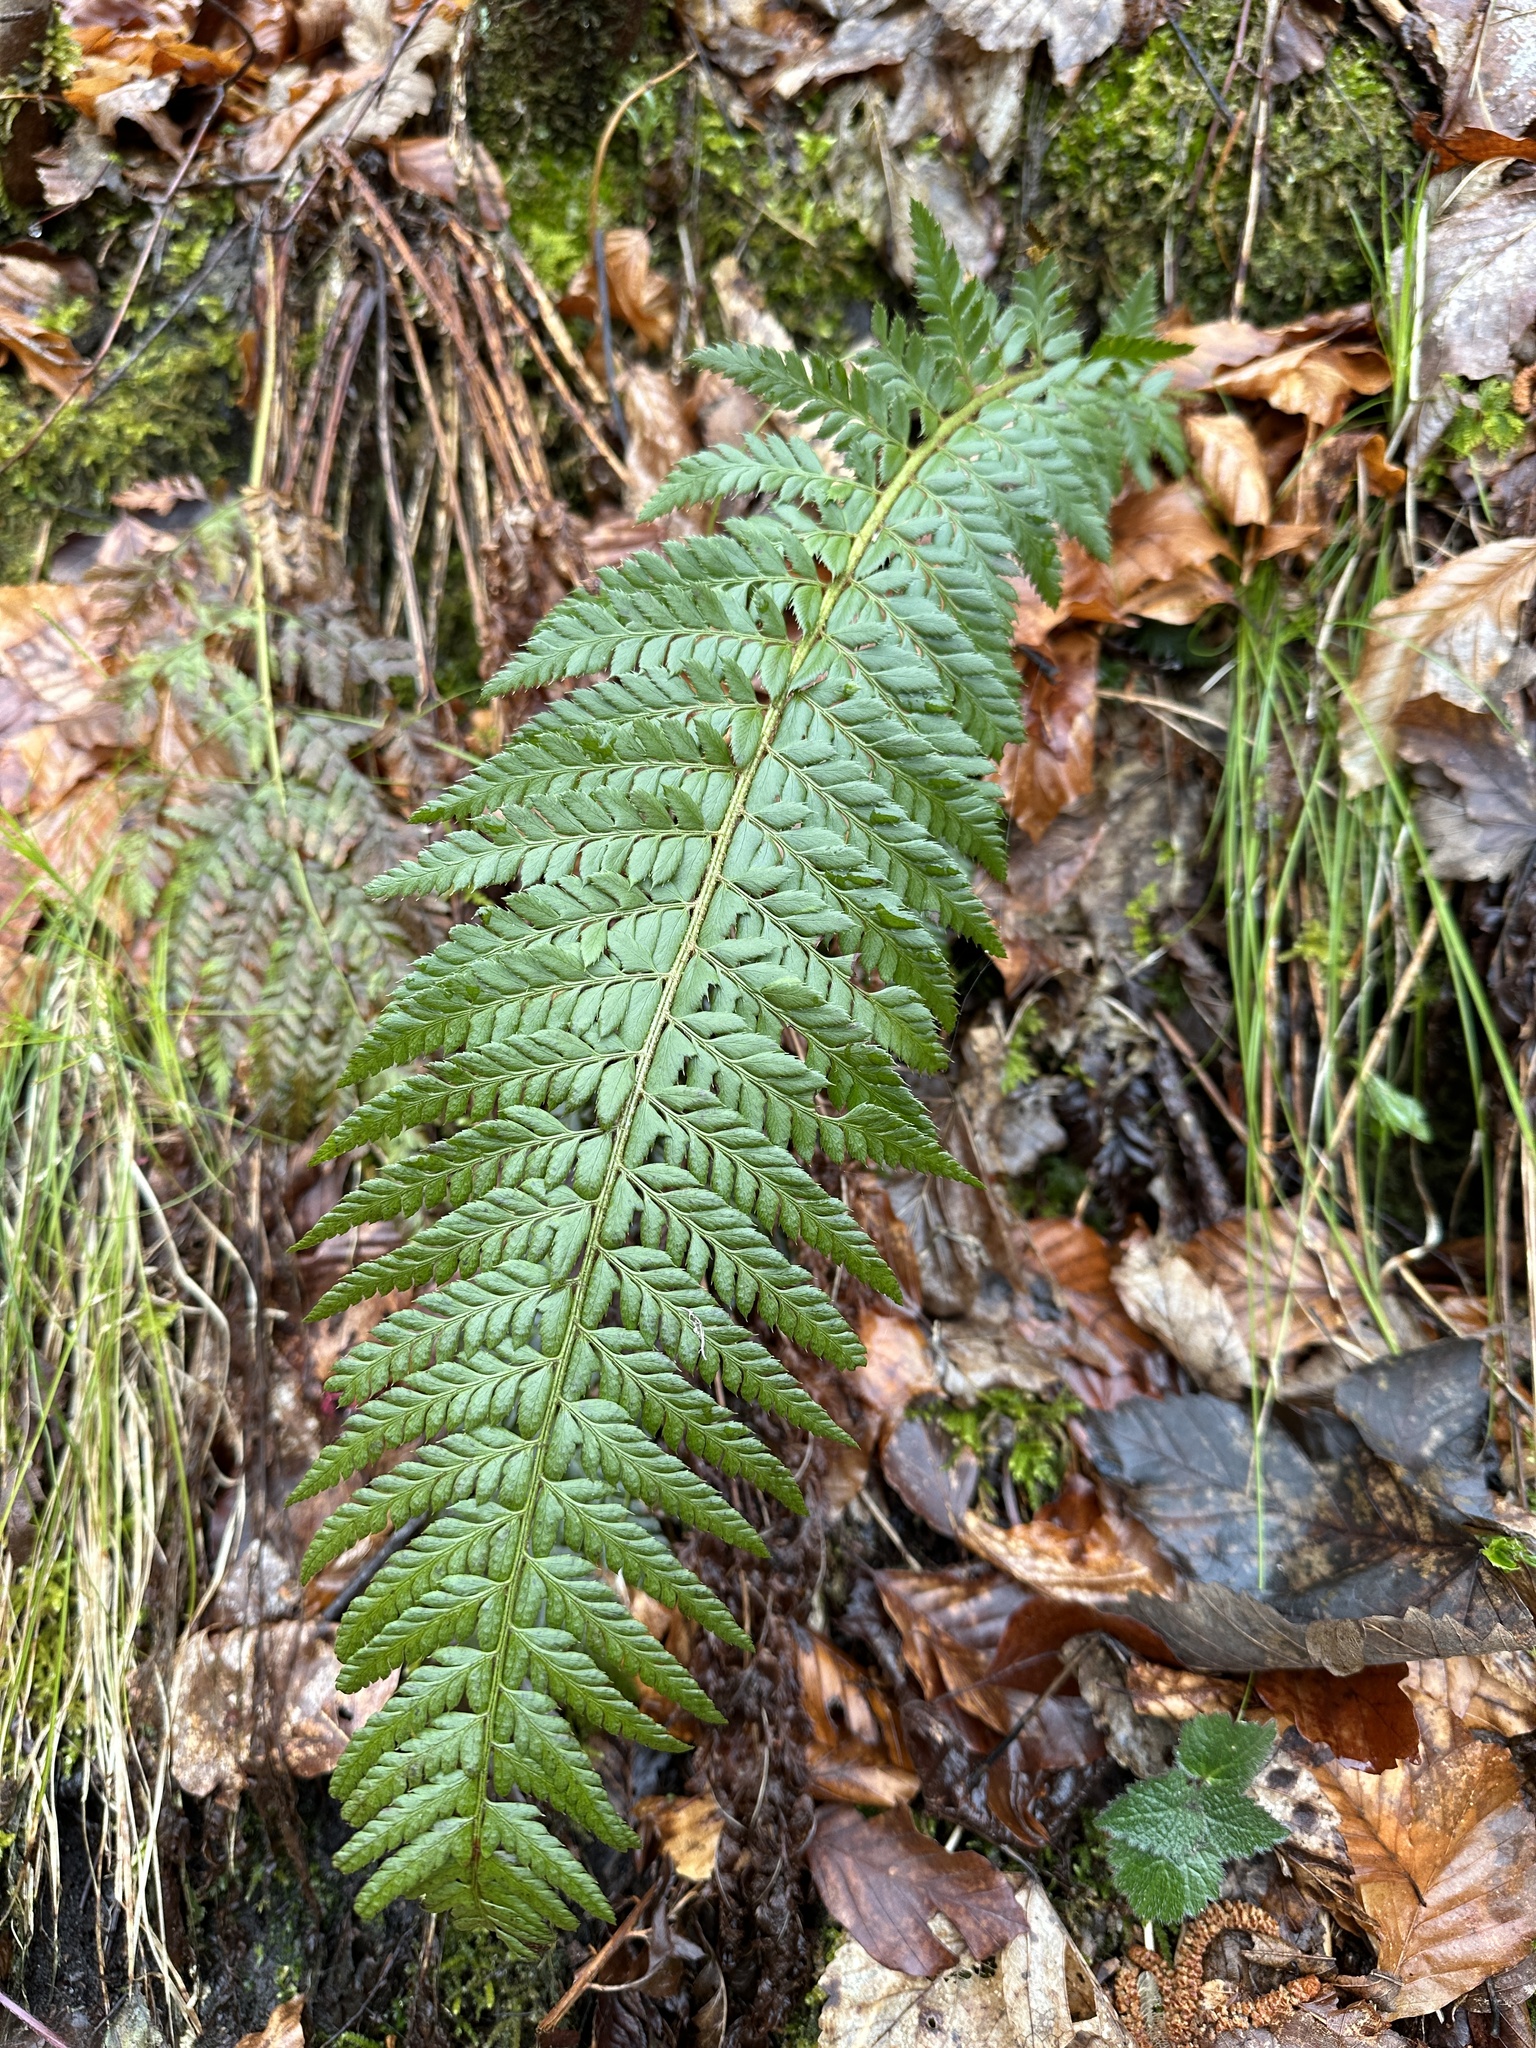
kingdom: Plantae
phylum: Tracheophyta
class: Polypodiopsida
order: Polypodiales
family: Dryopteridaceae
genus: Polystichum
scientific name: Polystichum aculeatum
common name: Hard shield-fern
